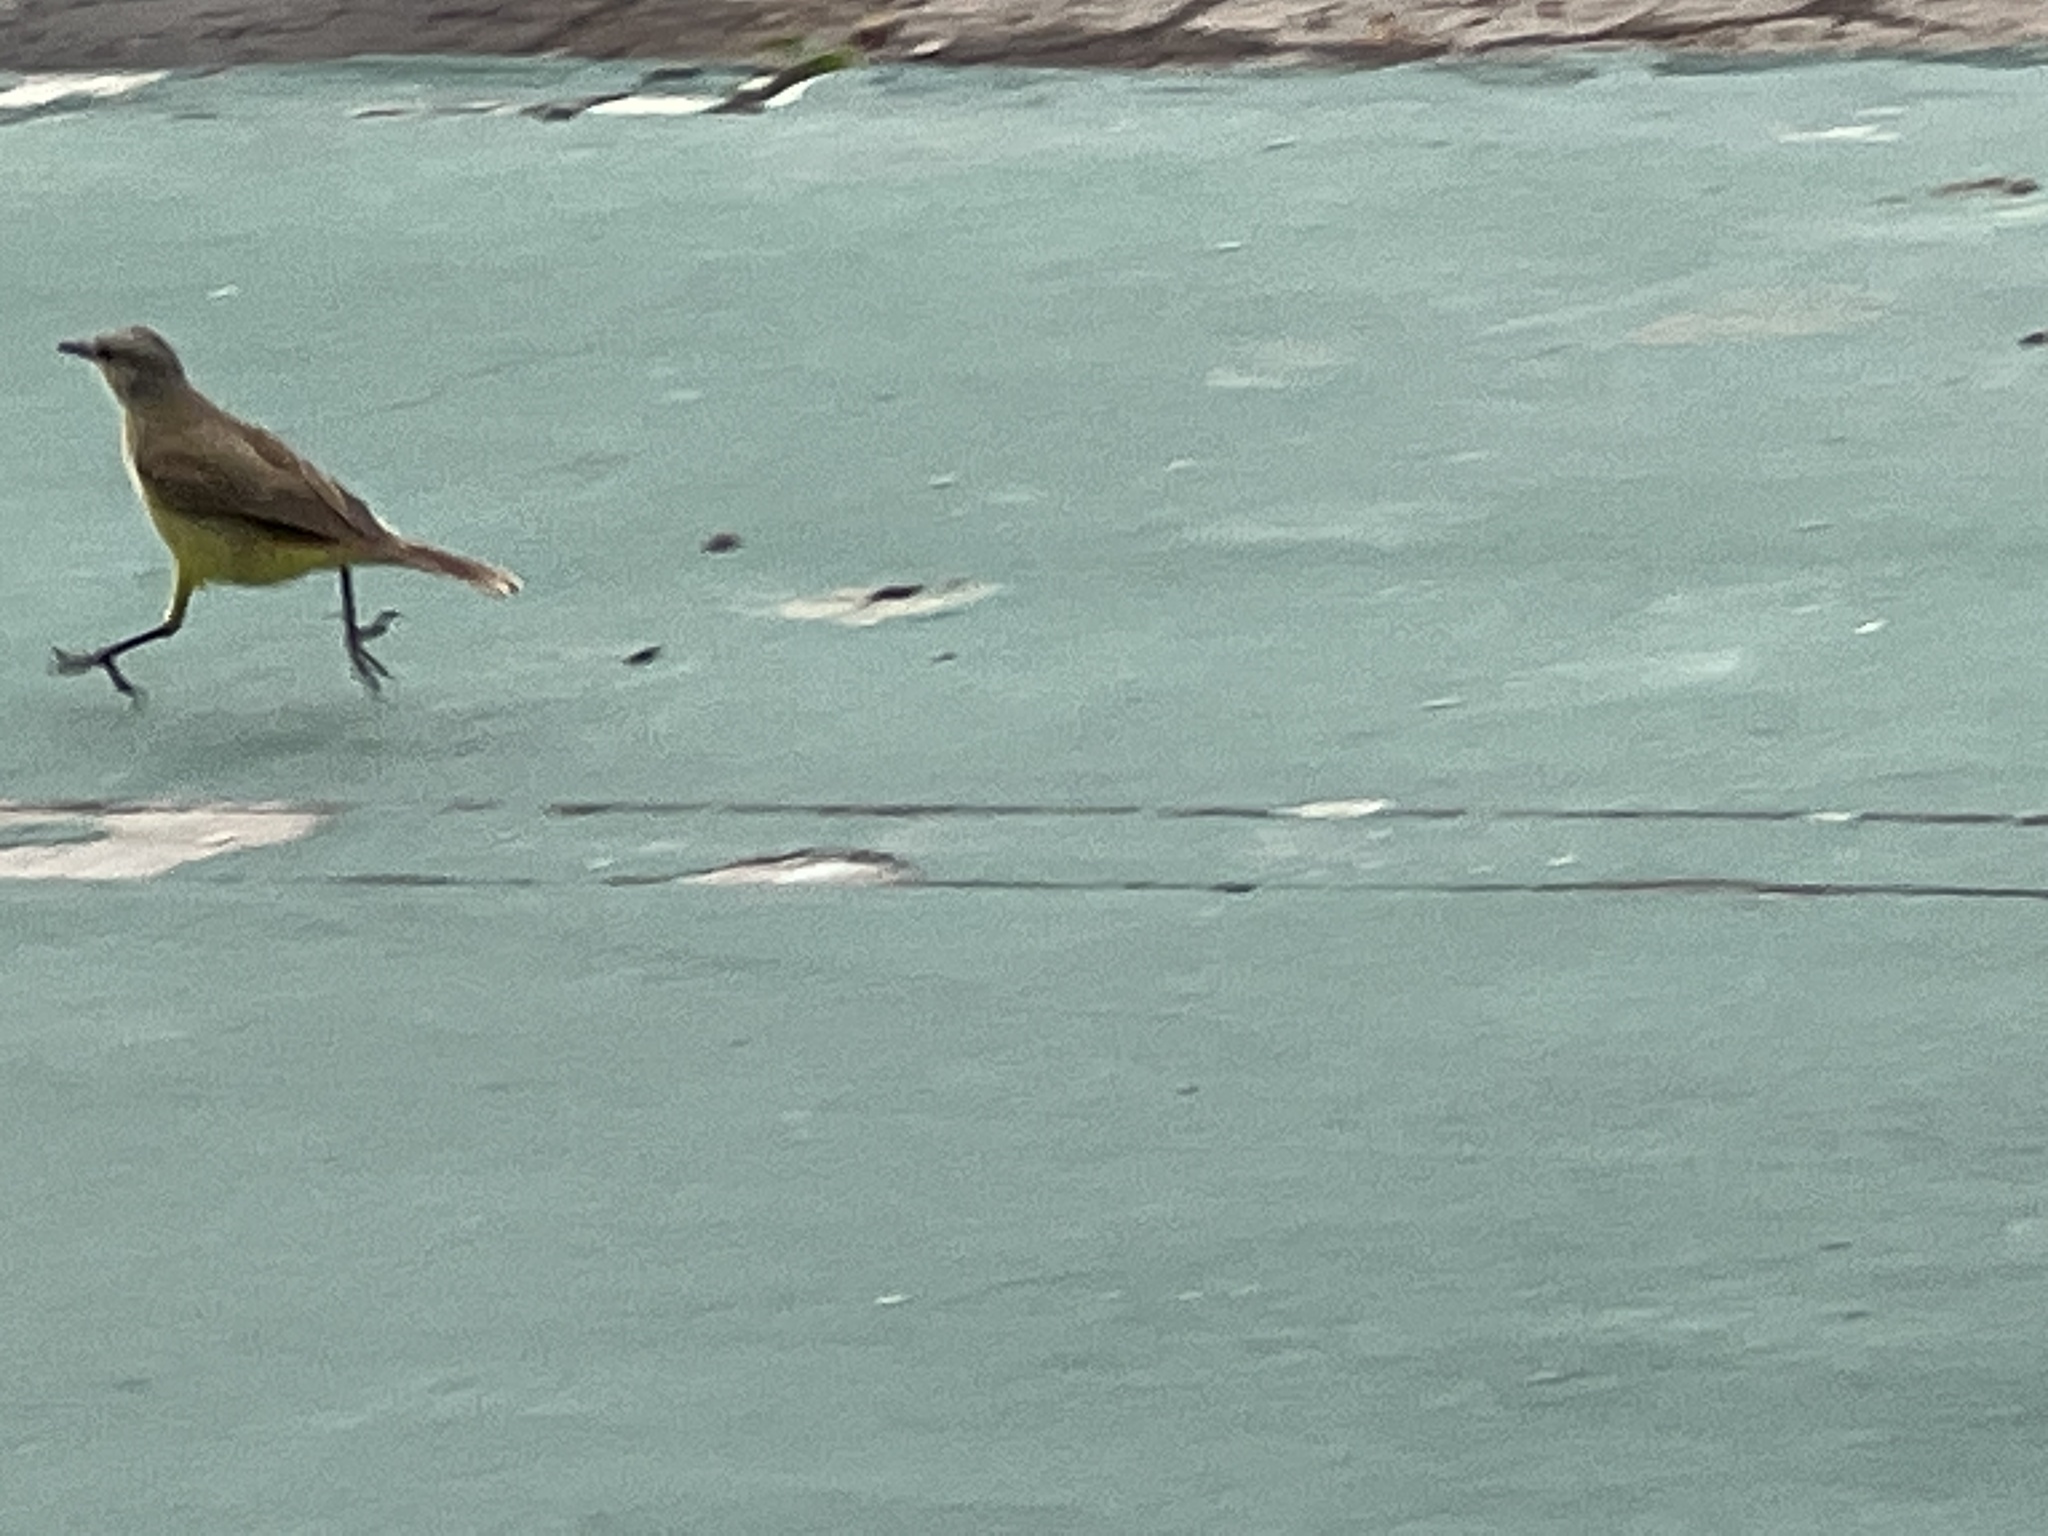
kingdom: Animalia
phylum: Chordata
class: Aves
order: Passeriformes
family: Tyrannidae
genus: Machetornis
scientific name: Machetornis rixosa
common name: Cattle tyrant
